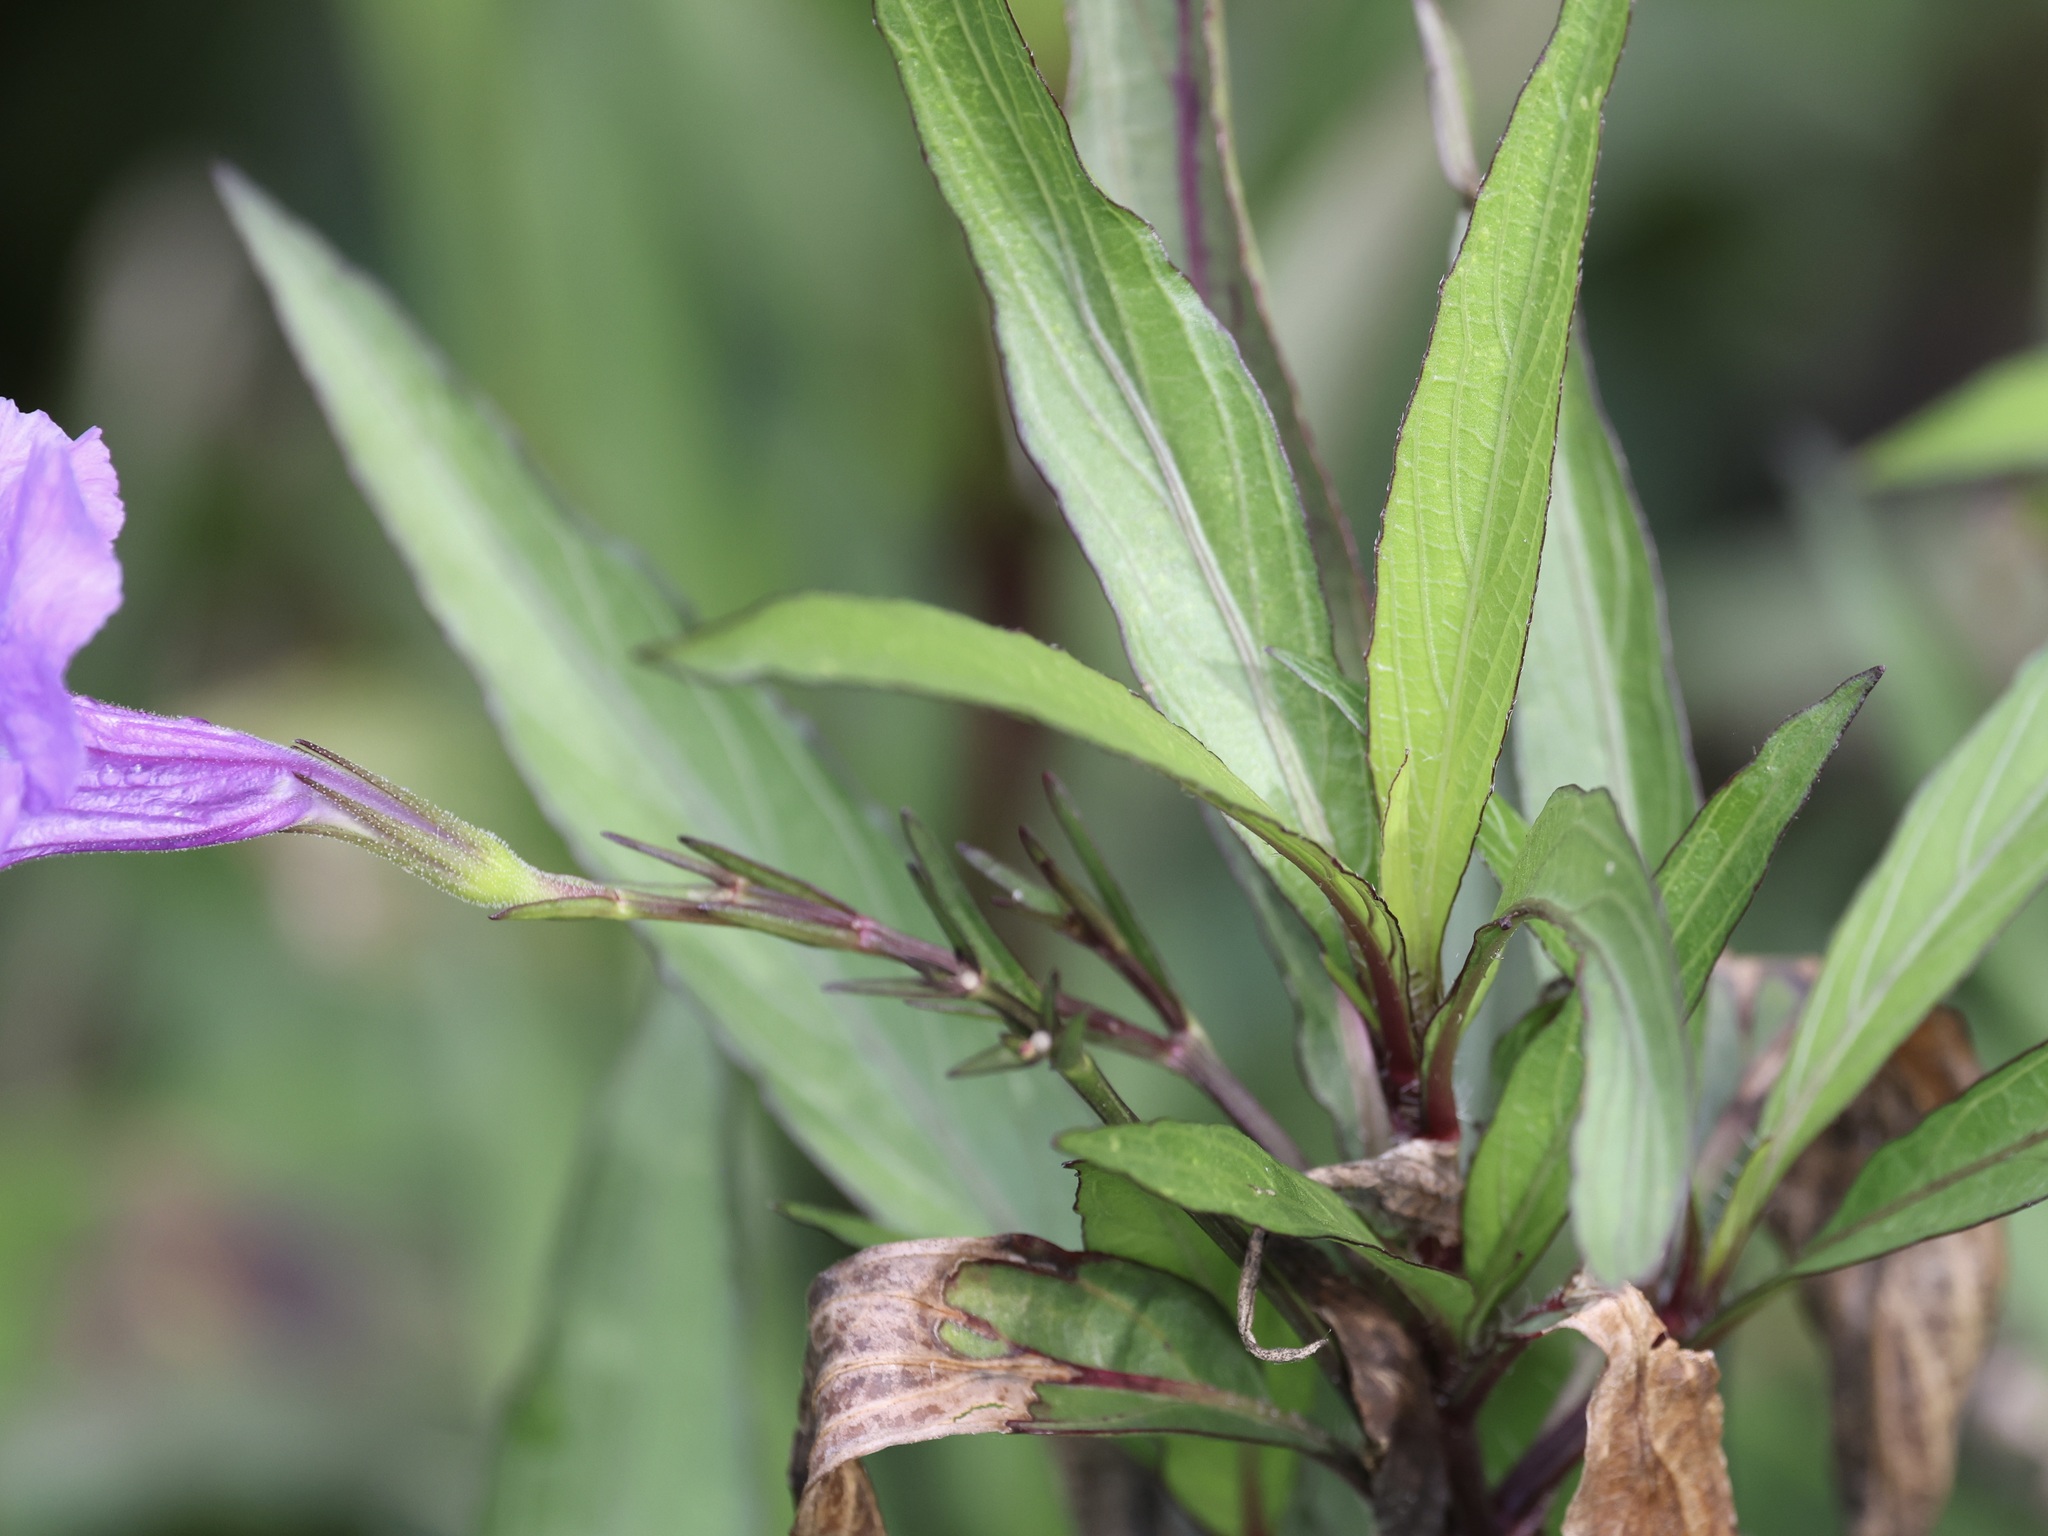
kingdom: Plantae
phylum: Tracheophyta
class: Magnoliopsida
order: Lamiales
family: Acanthaceae
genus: Ruellia
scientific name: Ruellia simplex
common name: Softseed wild petunia
